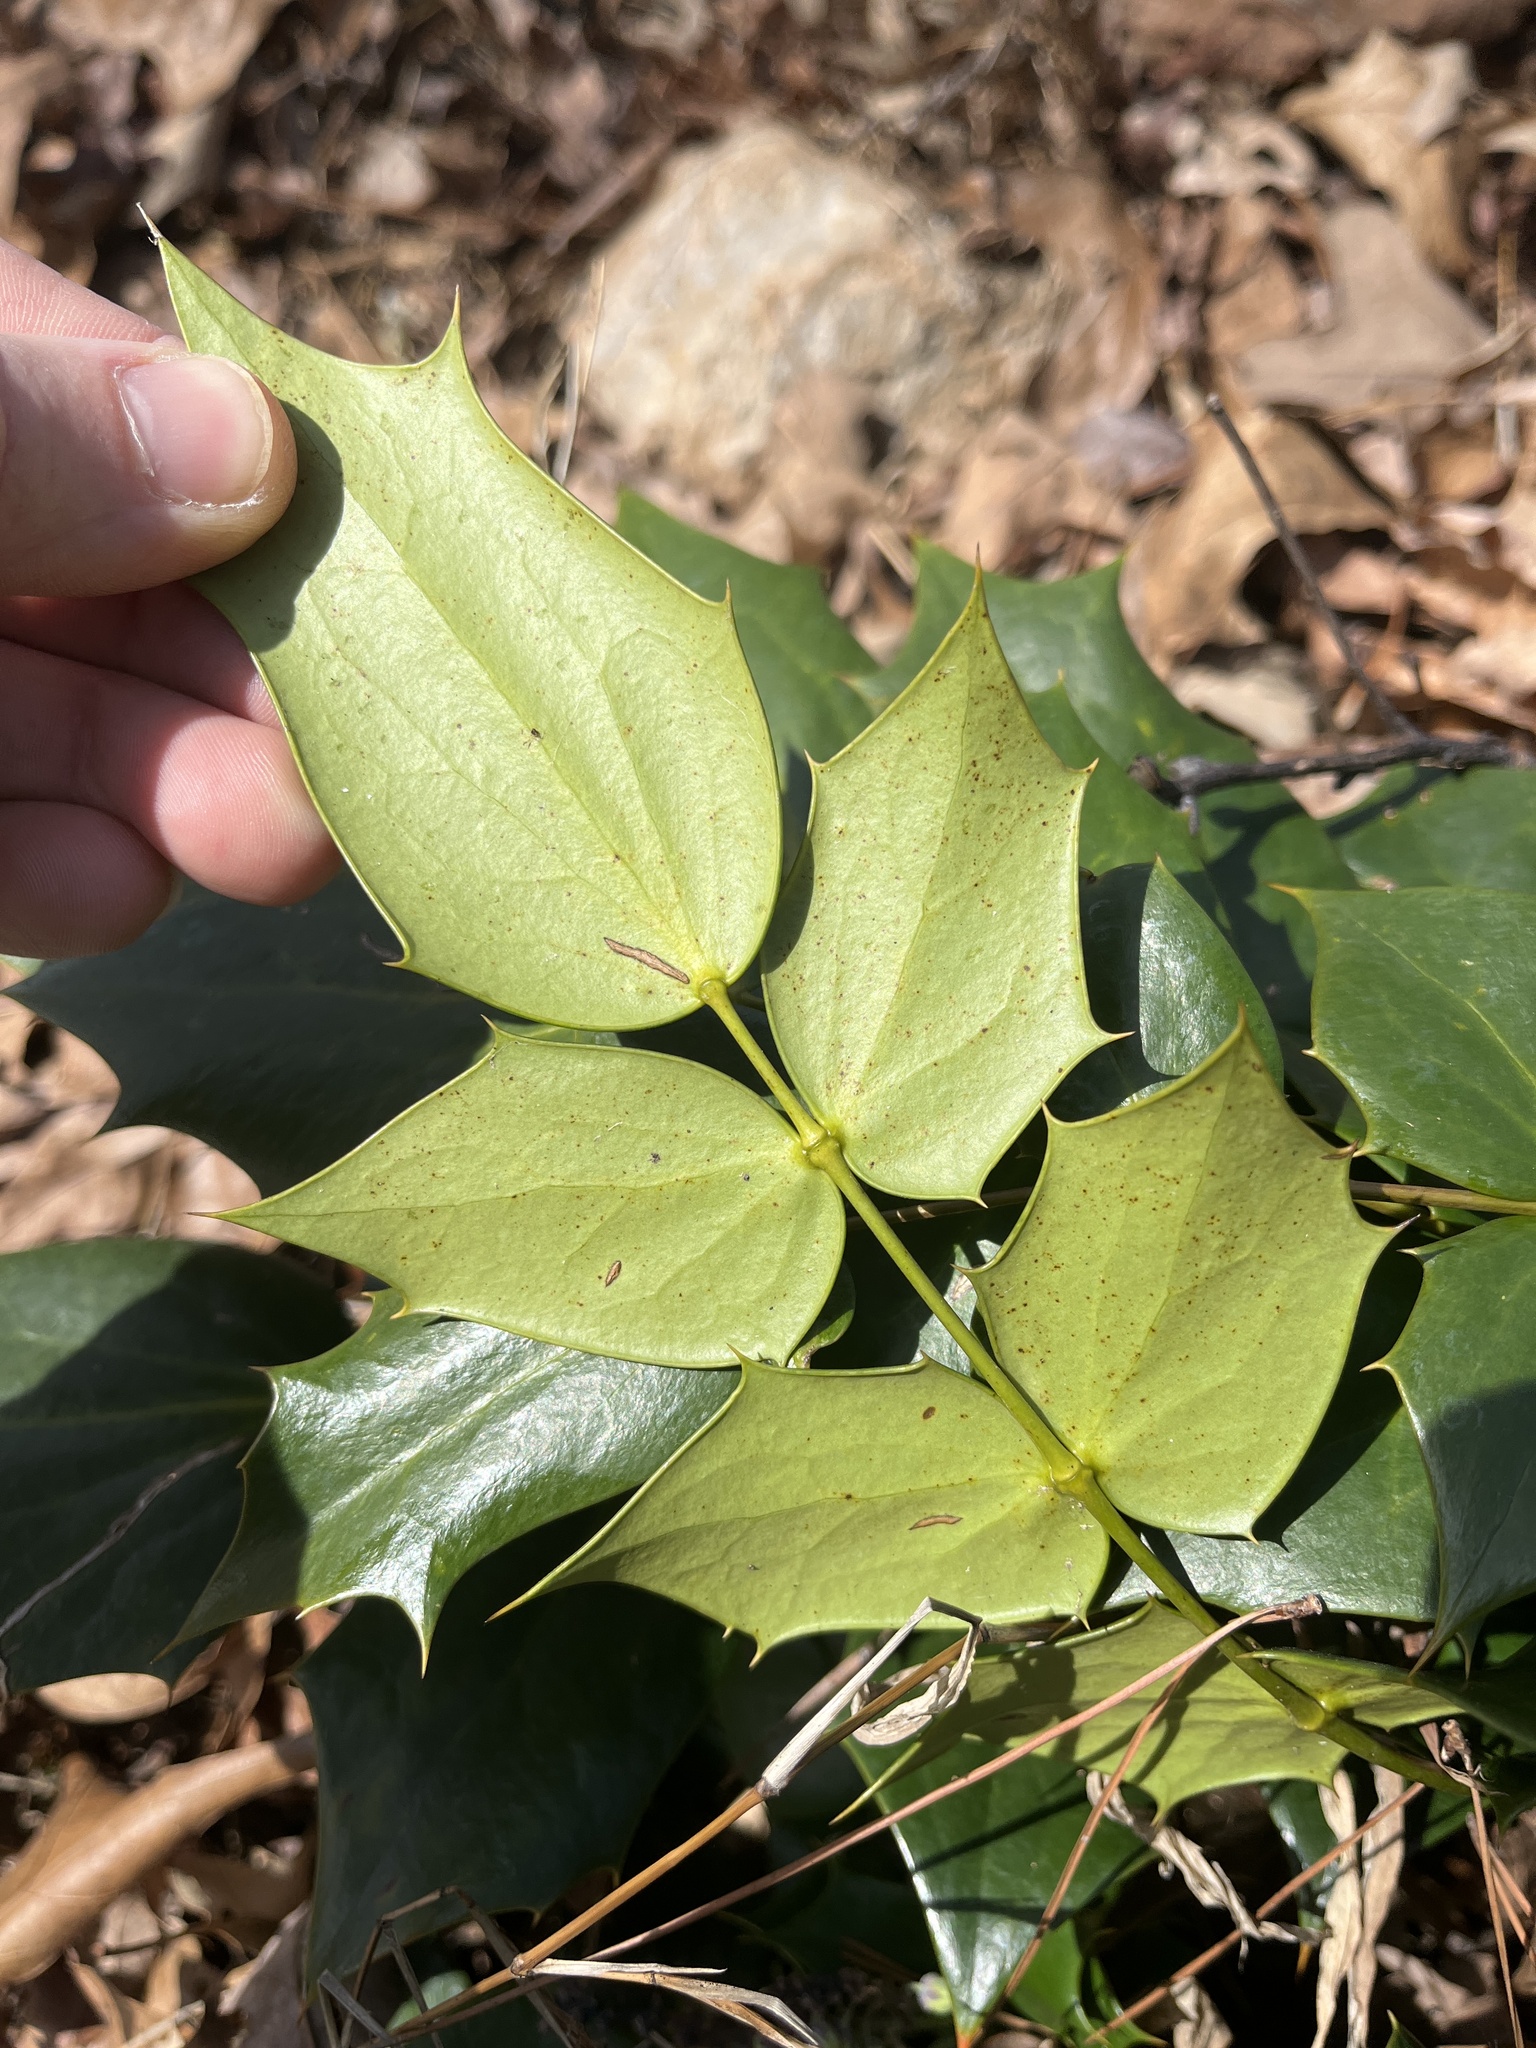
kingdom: Plantae
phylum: Tracheophyta
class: Magnoliopsida
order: Ranunculales
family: Berberidaceae
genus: Mahonia
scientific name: Mahonia bealei
